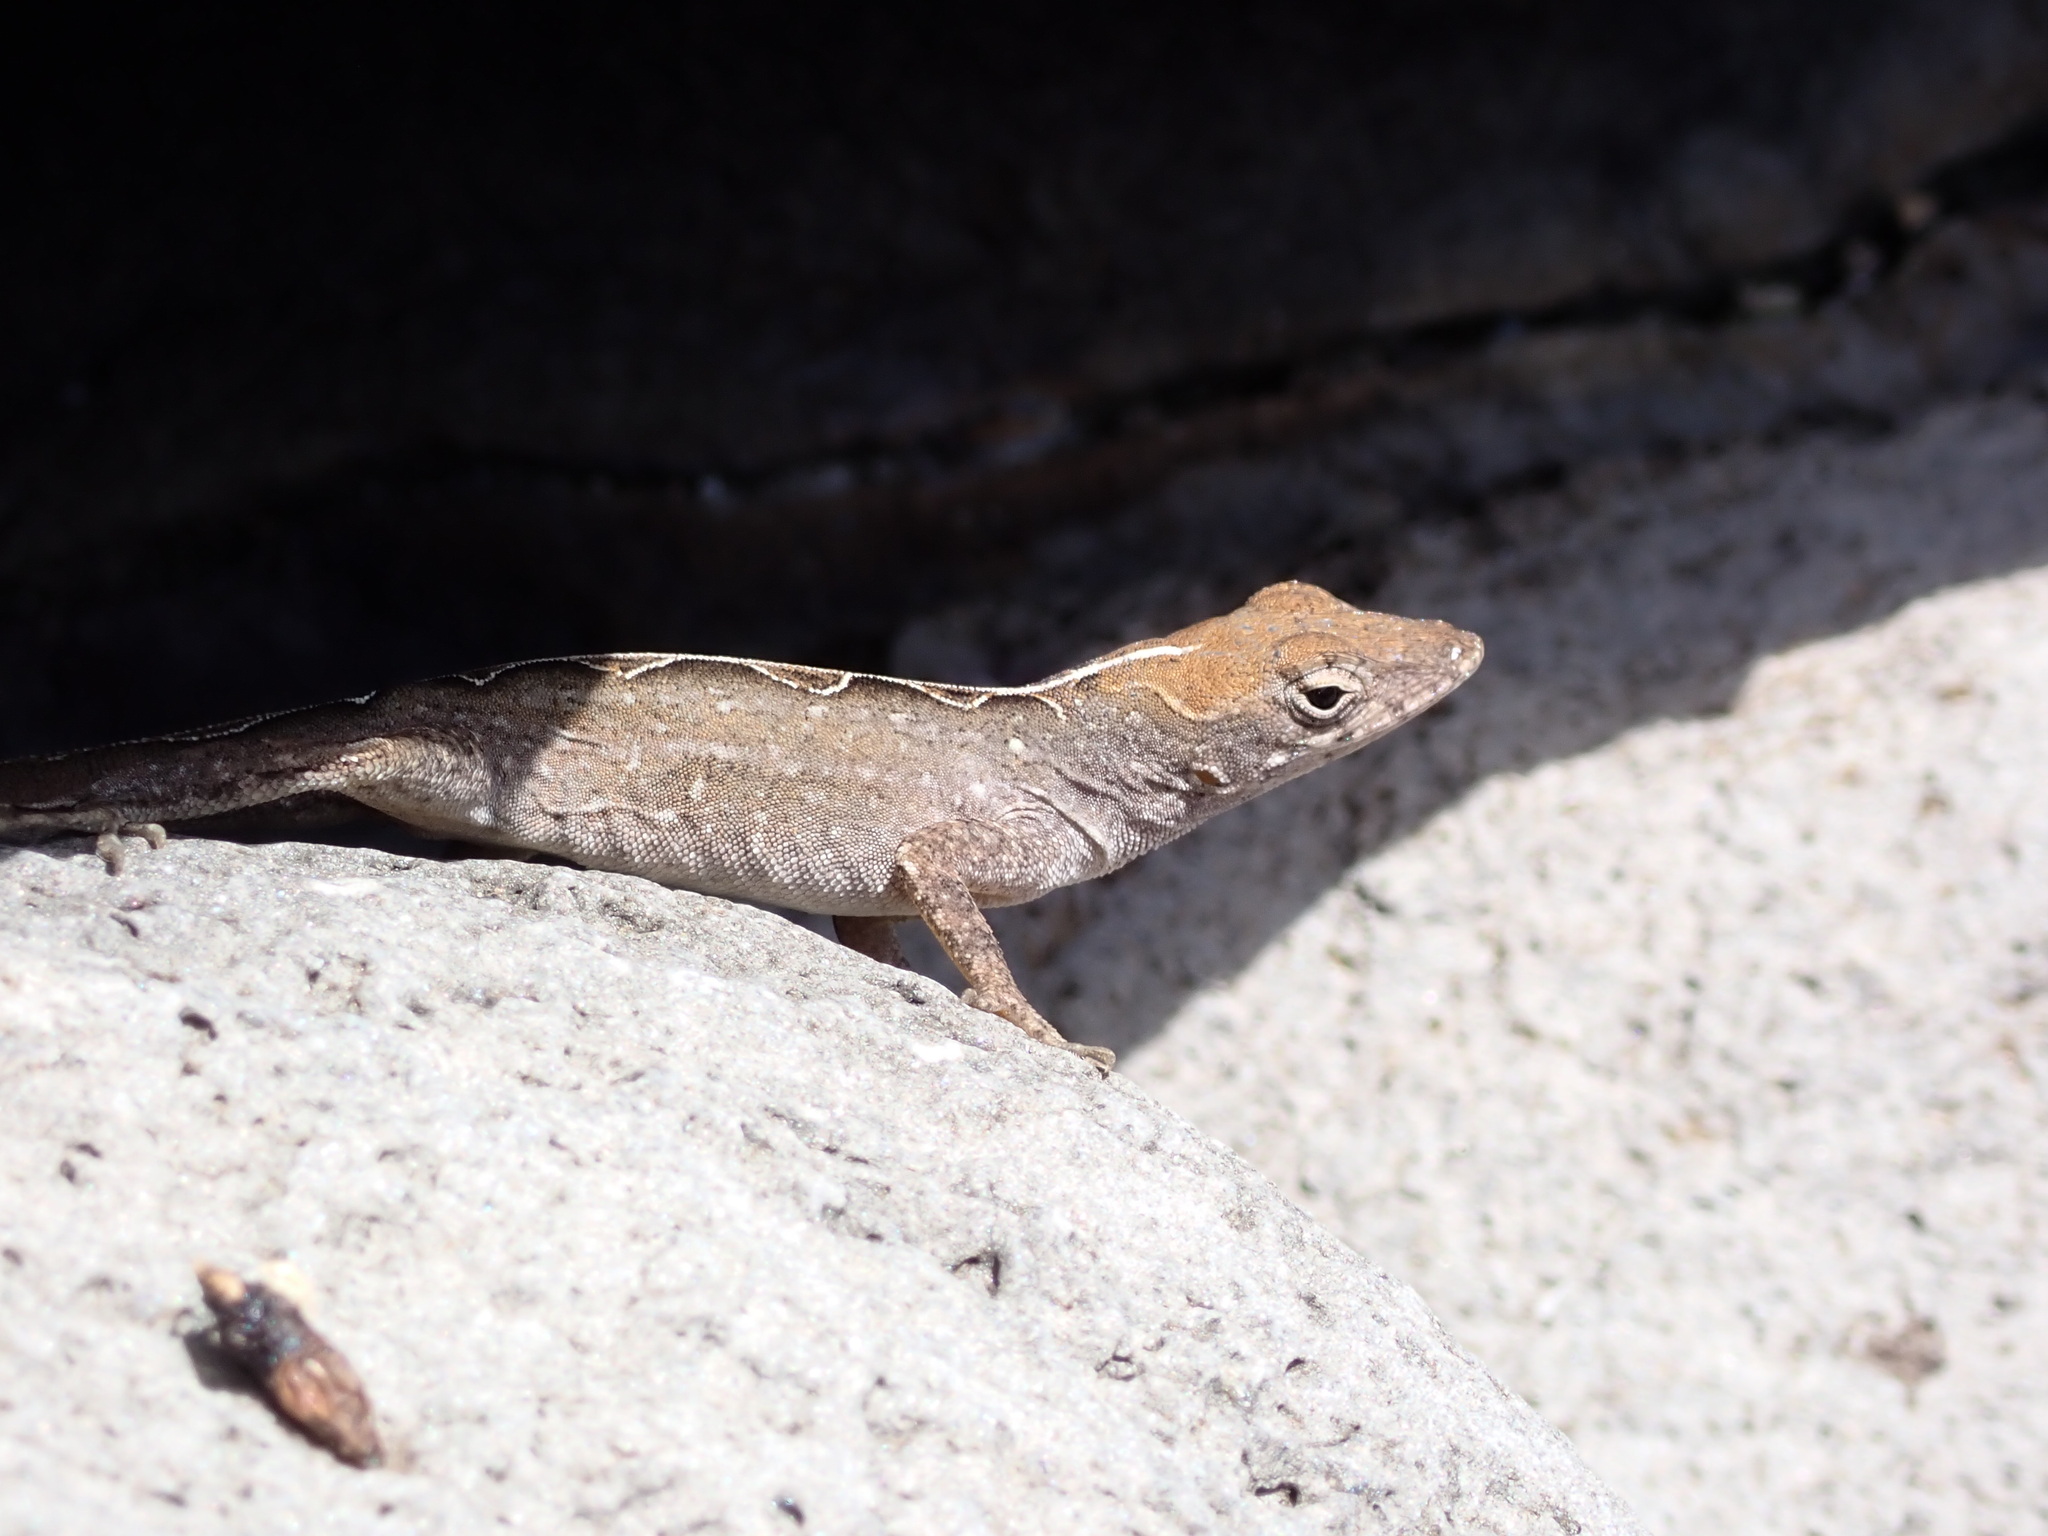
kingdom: Animalia
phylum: Chordata
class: Squamata
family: Dactyloidae
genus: Anolis
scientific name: Anolis sagrei
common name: Brown anole
